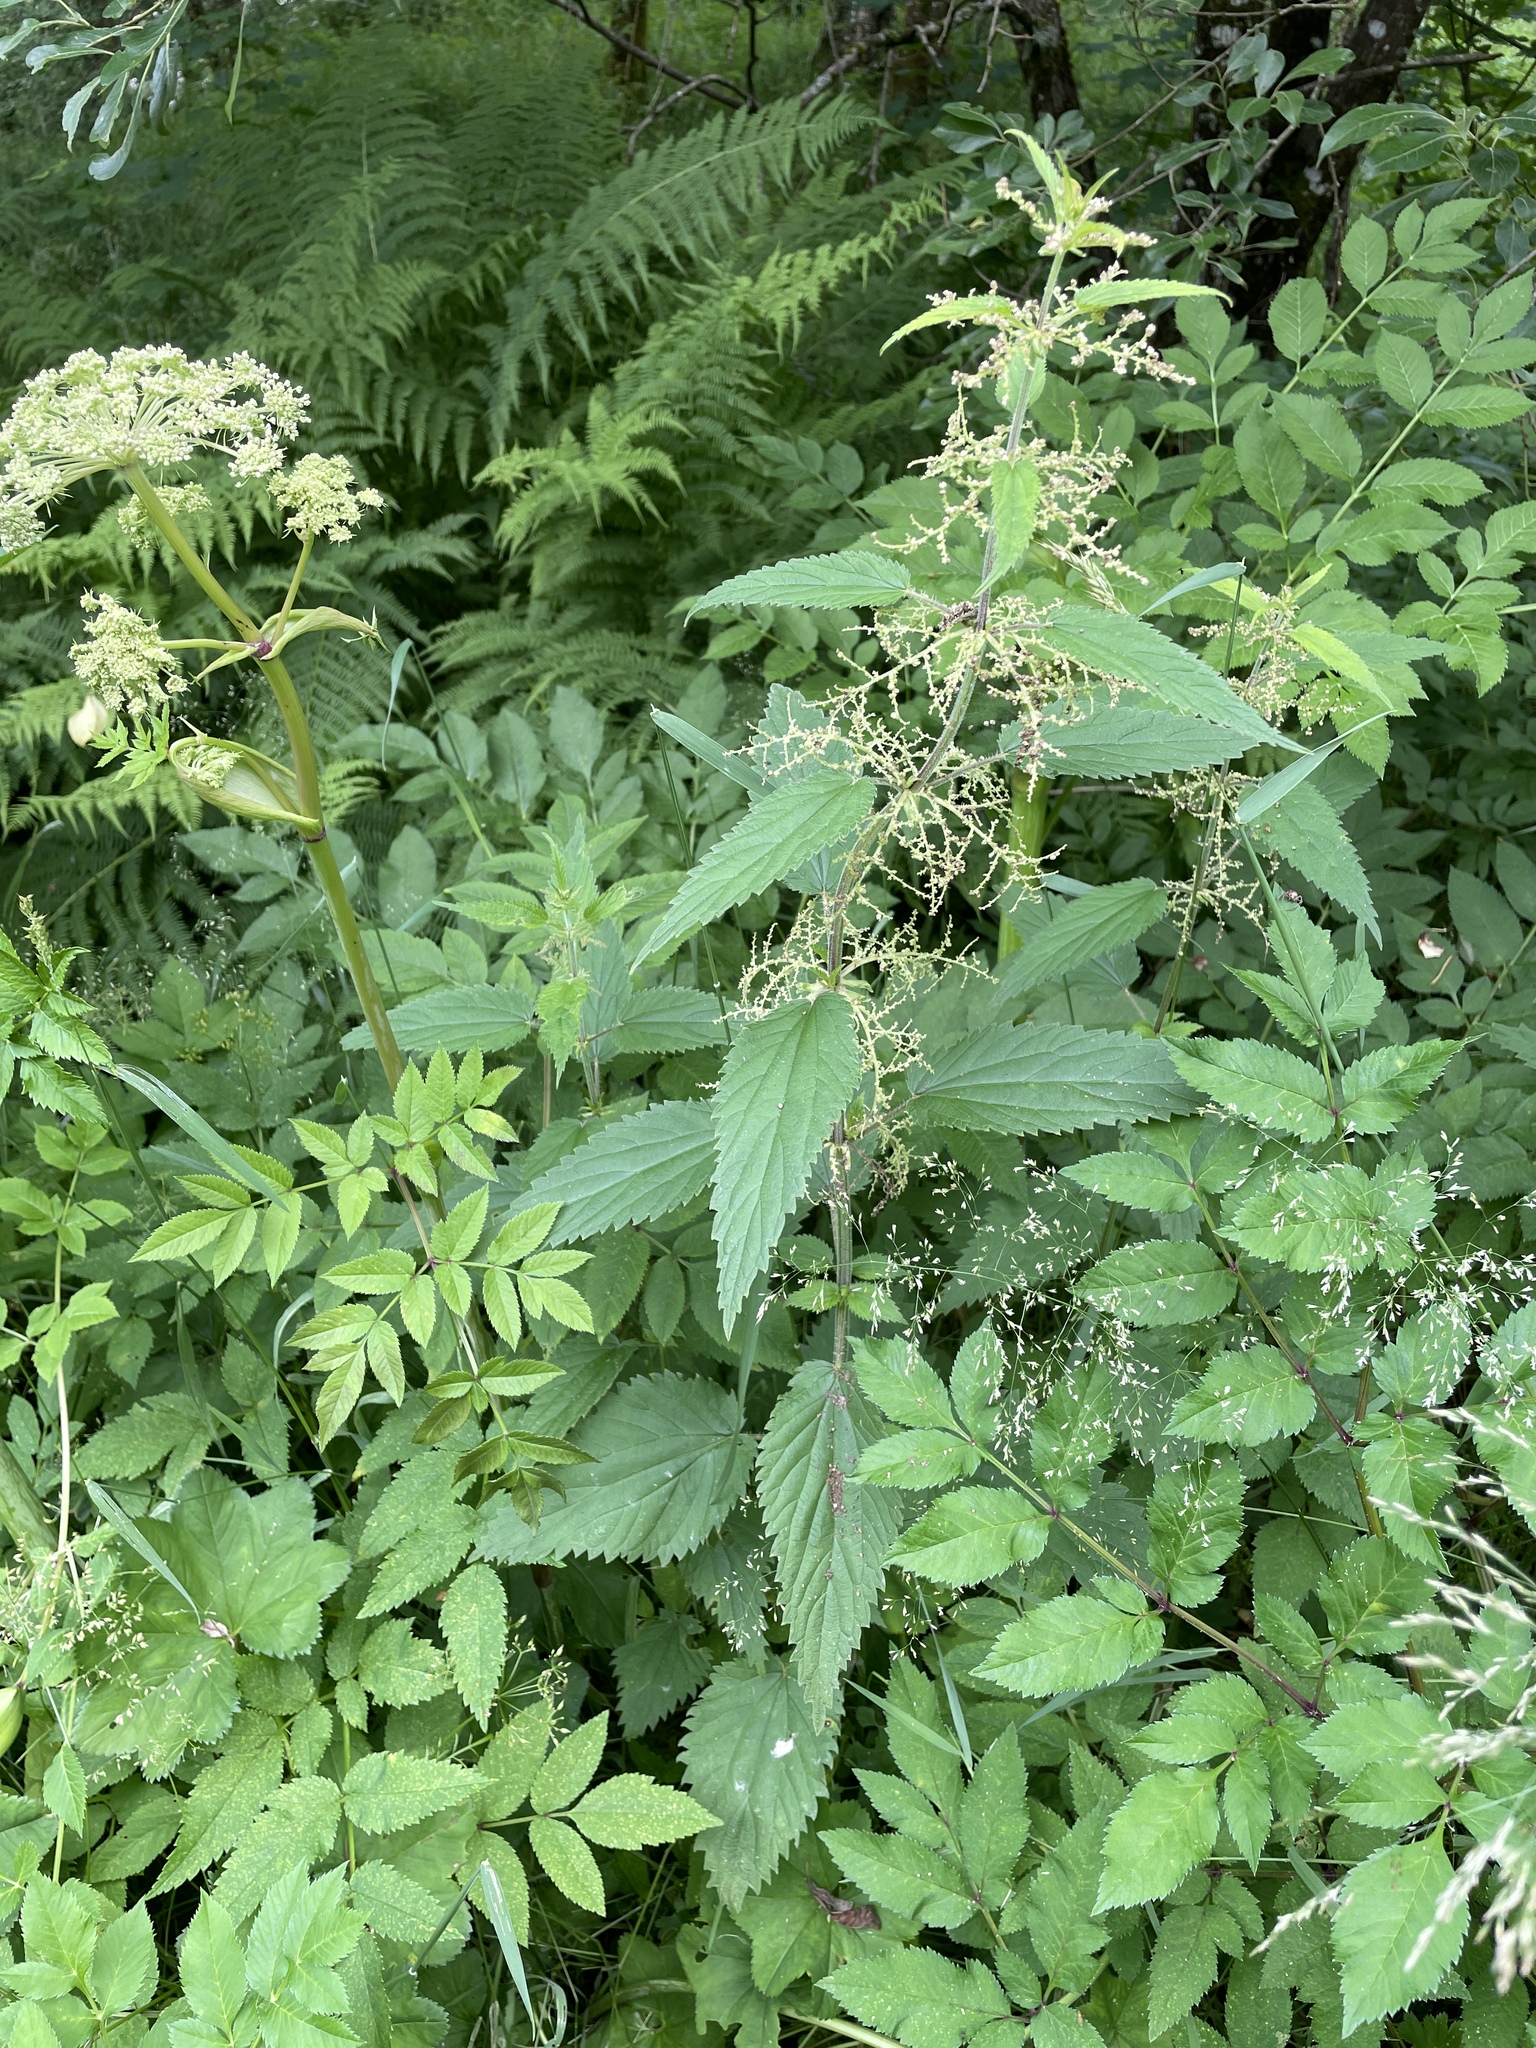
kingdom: Plantae
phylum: Tracheophyta
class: Magnoliopsida
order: Rosales
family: Urticaceae
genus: Urtica
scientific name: Urtica dioica
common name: Common nettle
